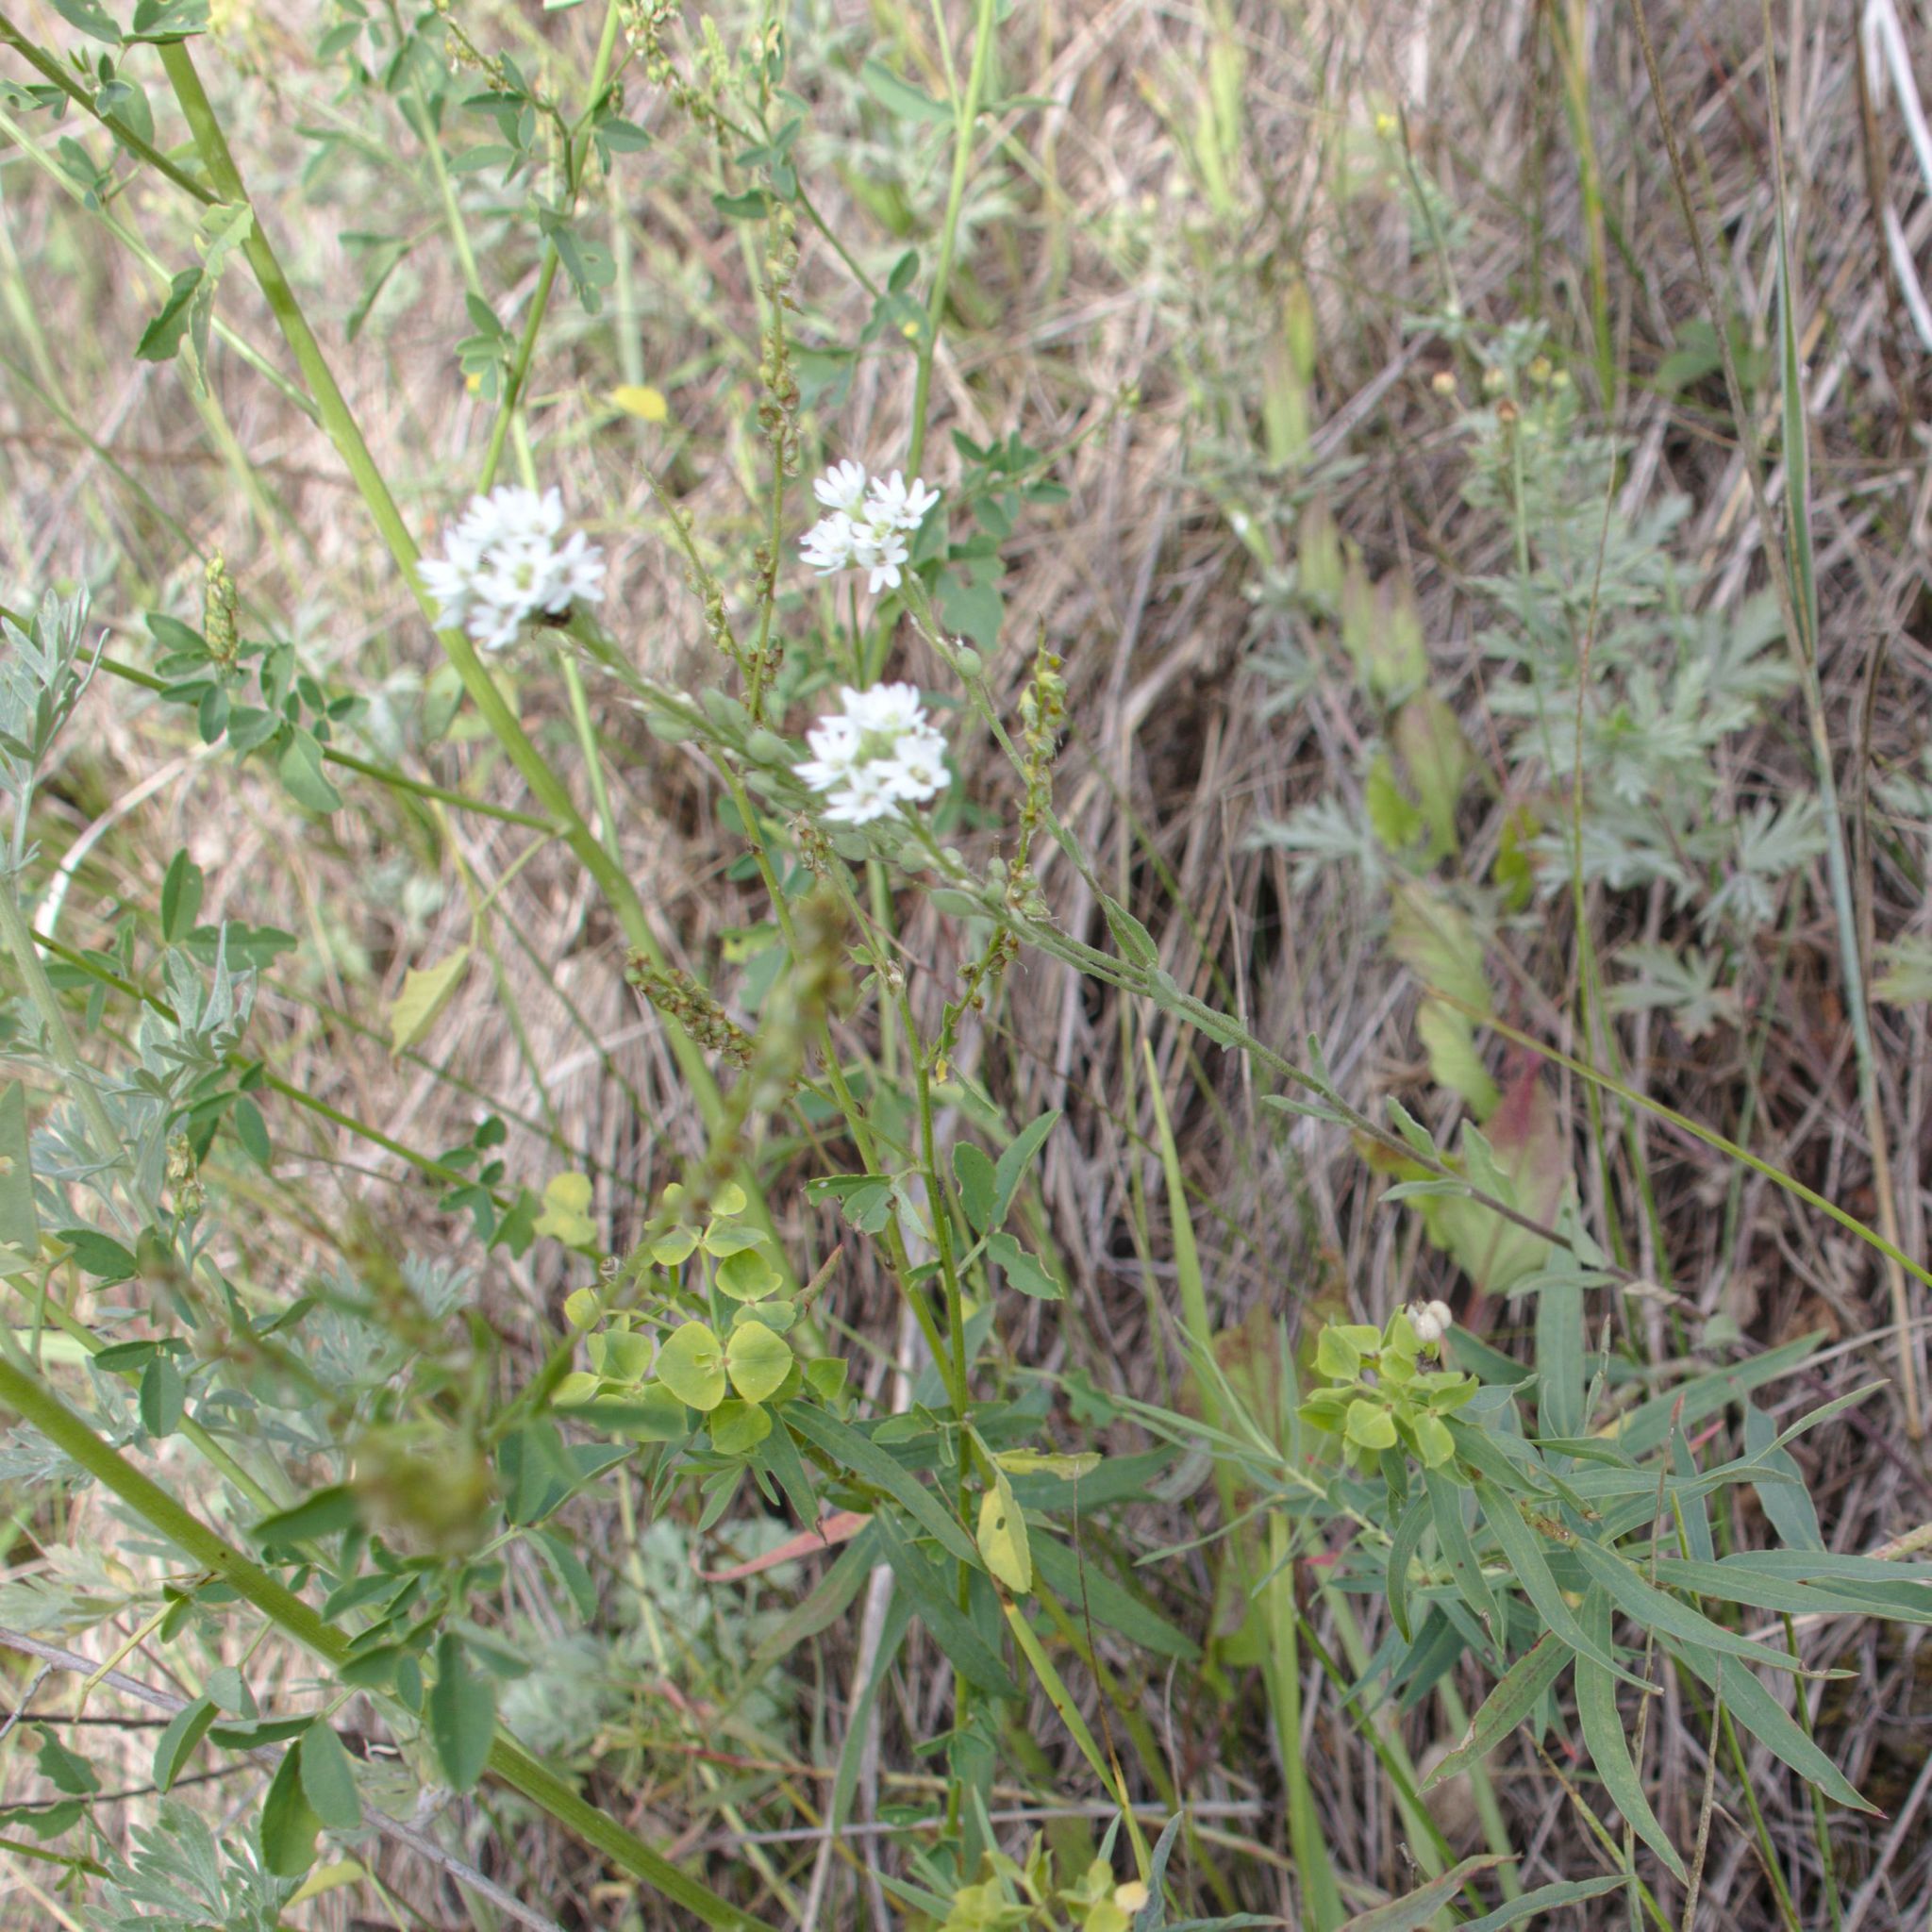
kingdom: Plantae
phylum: Tracheophyta
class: Magnoliopsida
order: Brassicales
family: Brassicaceae
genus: Berteroa
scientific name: Berteroa incana
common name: Hoary alison
